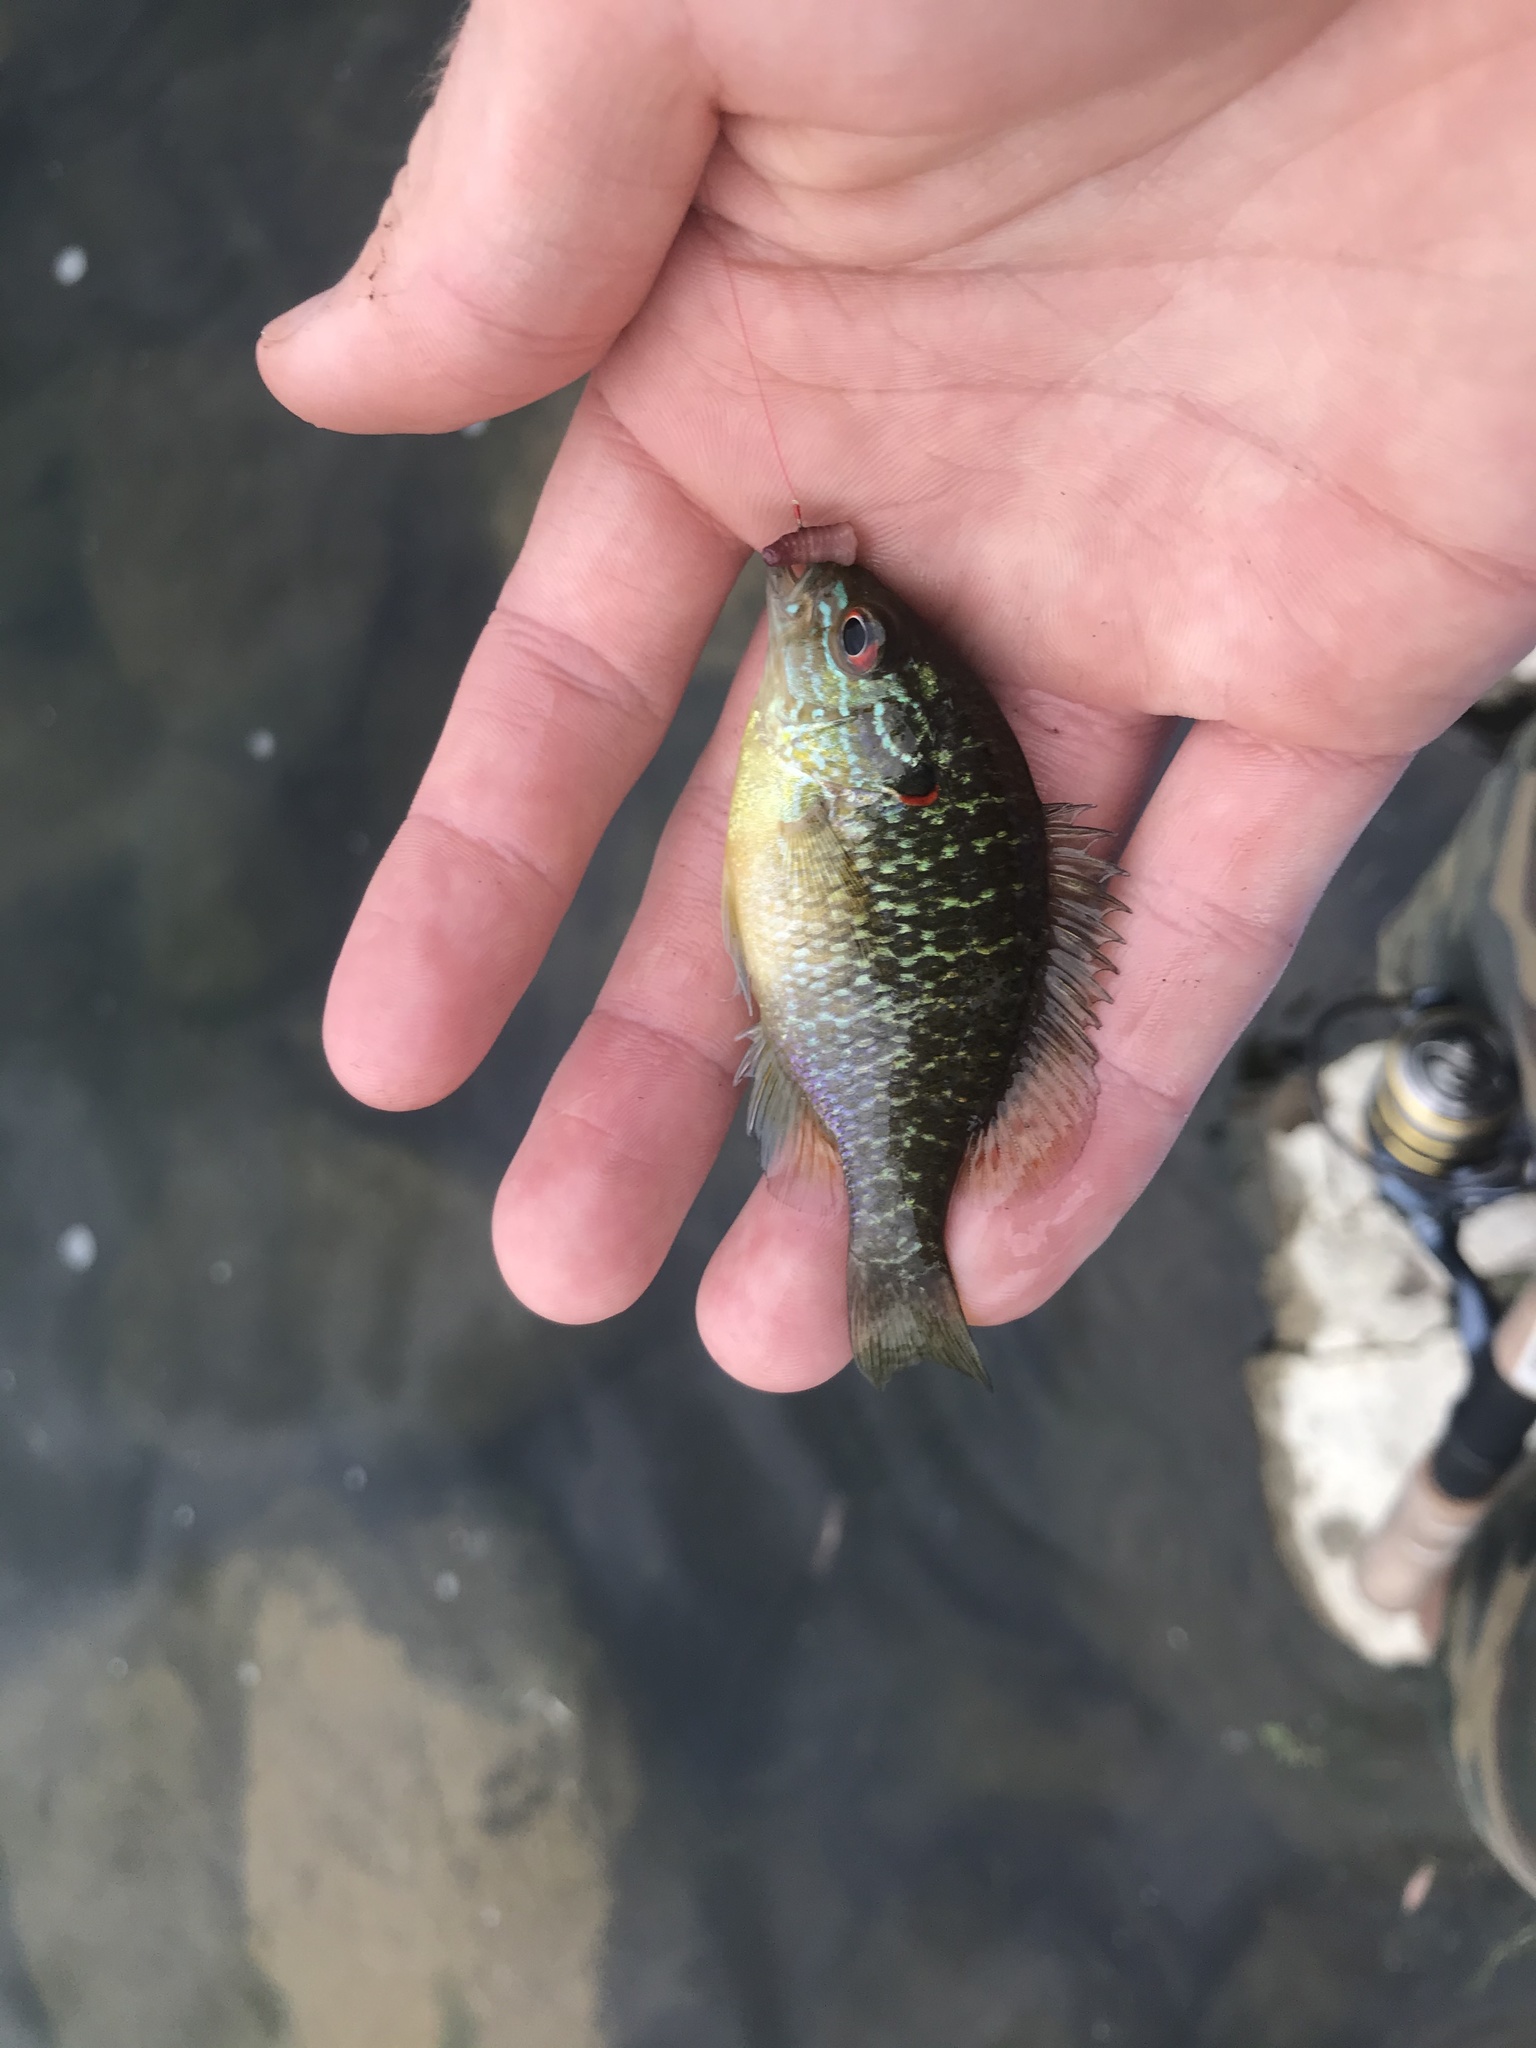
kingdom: Animalia
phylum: Chordata
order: Perciformes
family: Centrarchidae
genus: Lepomis
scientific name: Lepomis peltastes
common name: Northern sunfish
